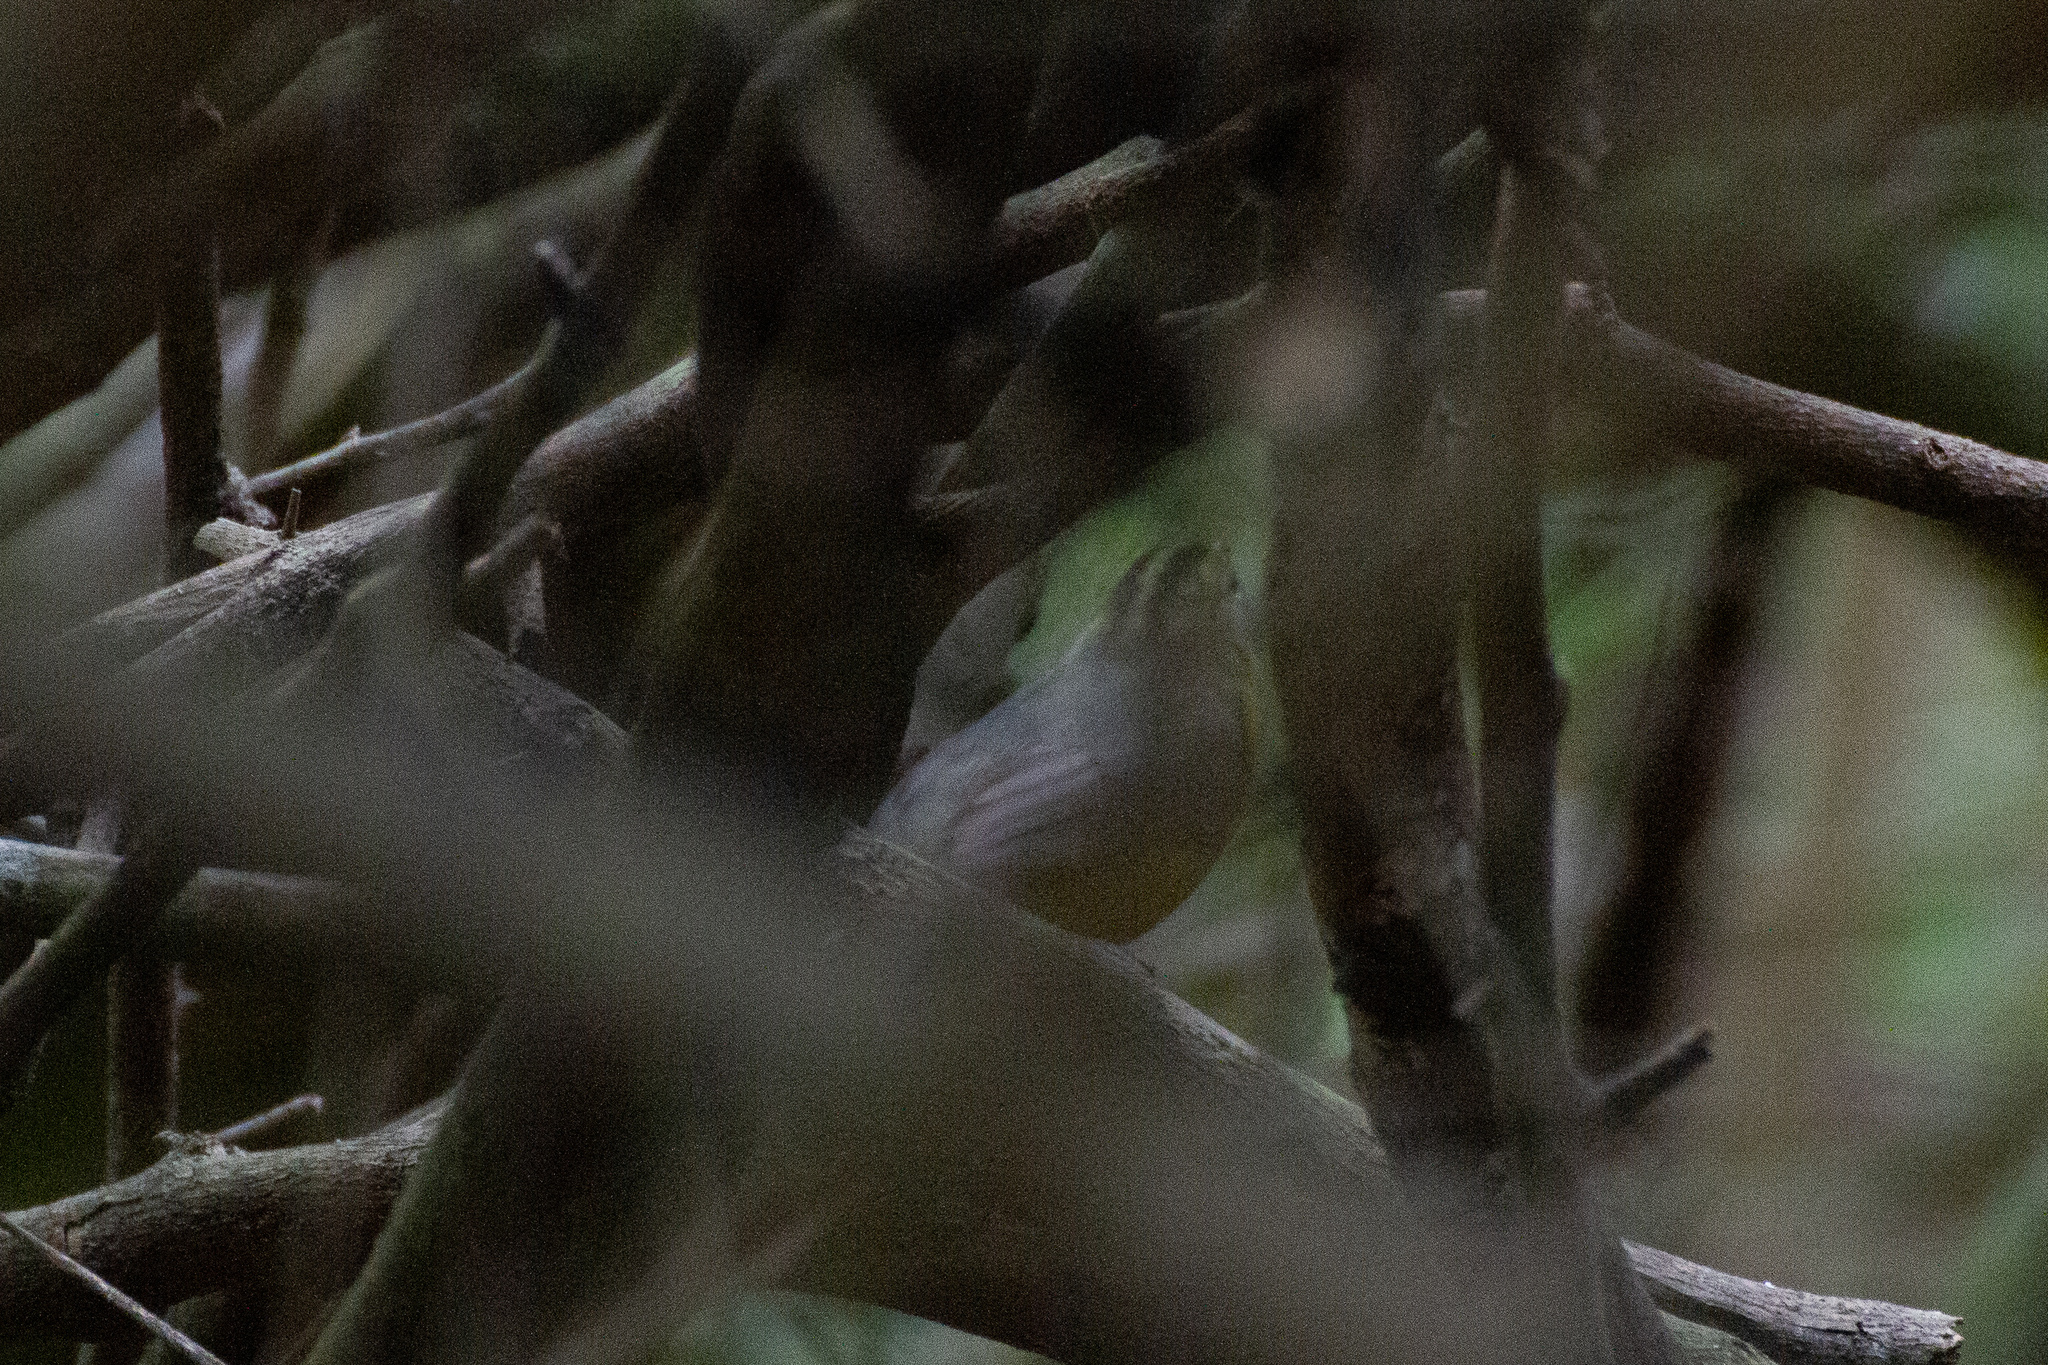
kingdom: Animalia
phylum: Chordata
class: Aves
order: Passeriformes
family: Parulidae
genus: Basileuterus
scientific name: Basileuterus culicivorus
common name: Golden-crowned warbler
